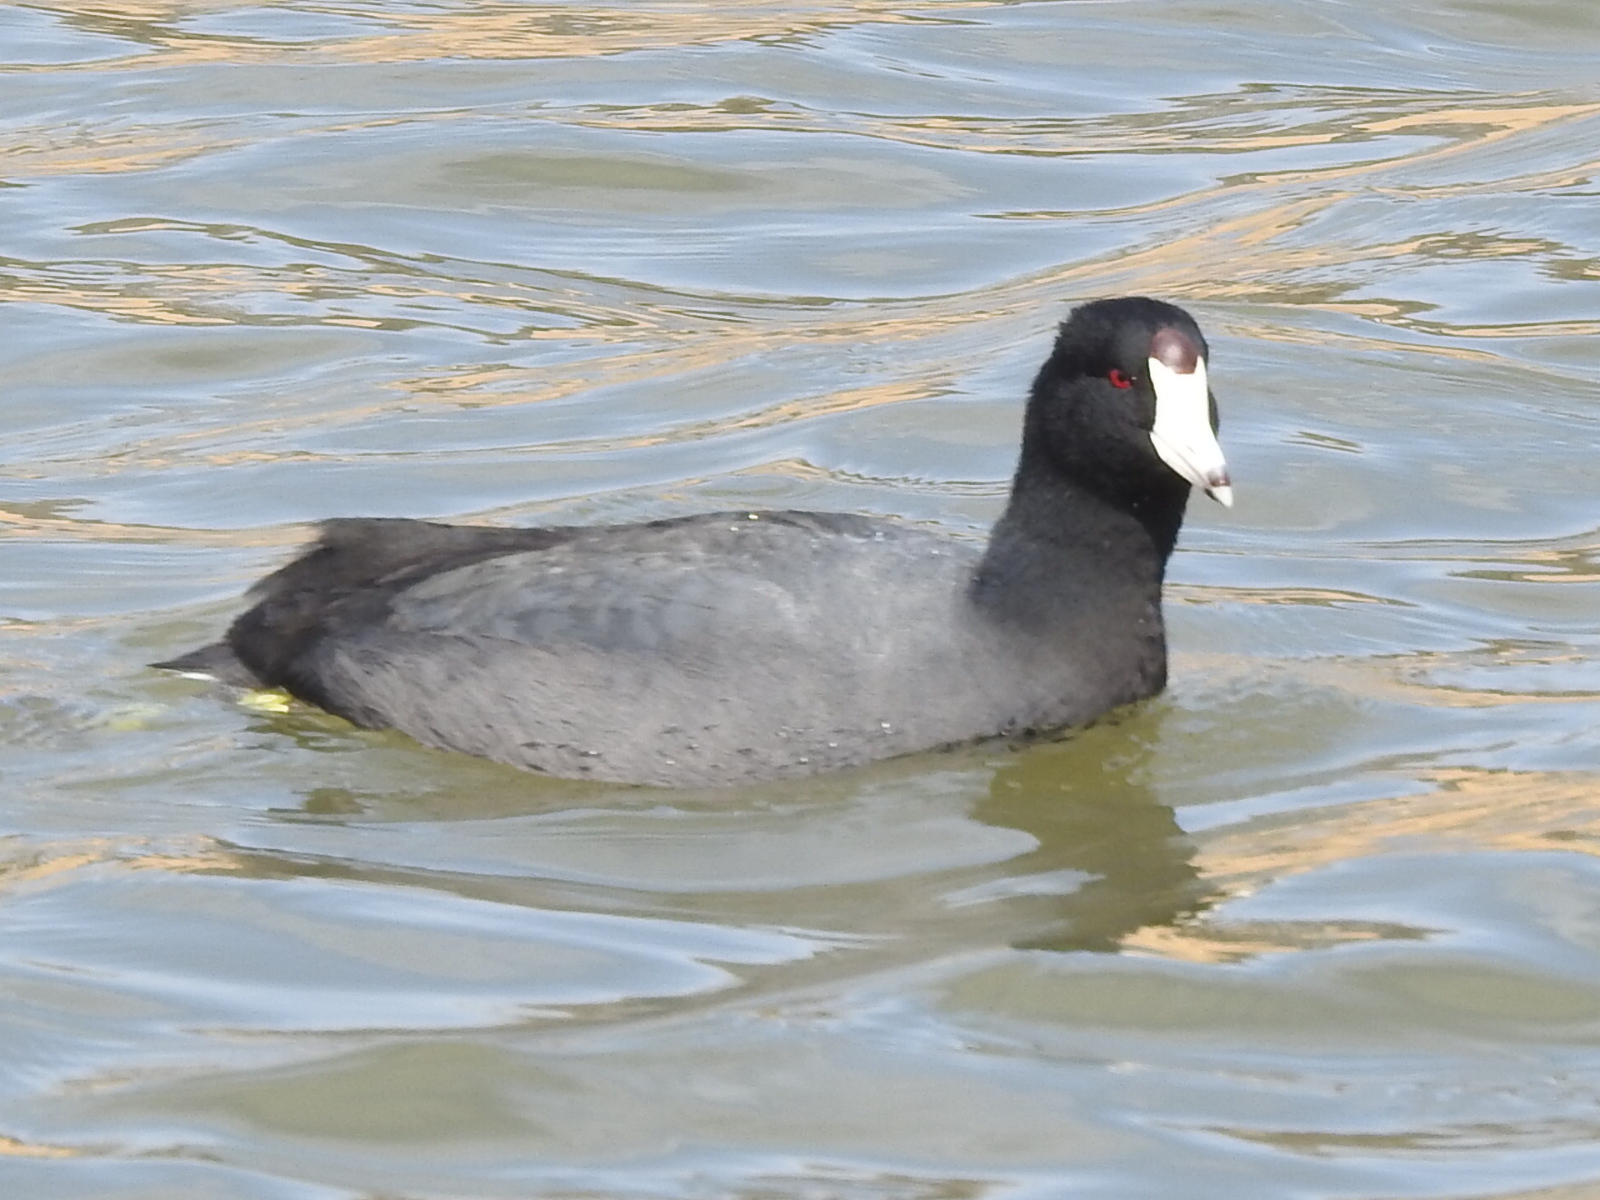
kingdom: Animalia
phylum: Chordata
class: Aves
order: Gruiformes
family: Rallidae
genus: Fulica
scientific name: Fulica americana
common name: American coot
